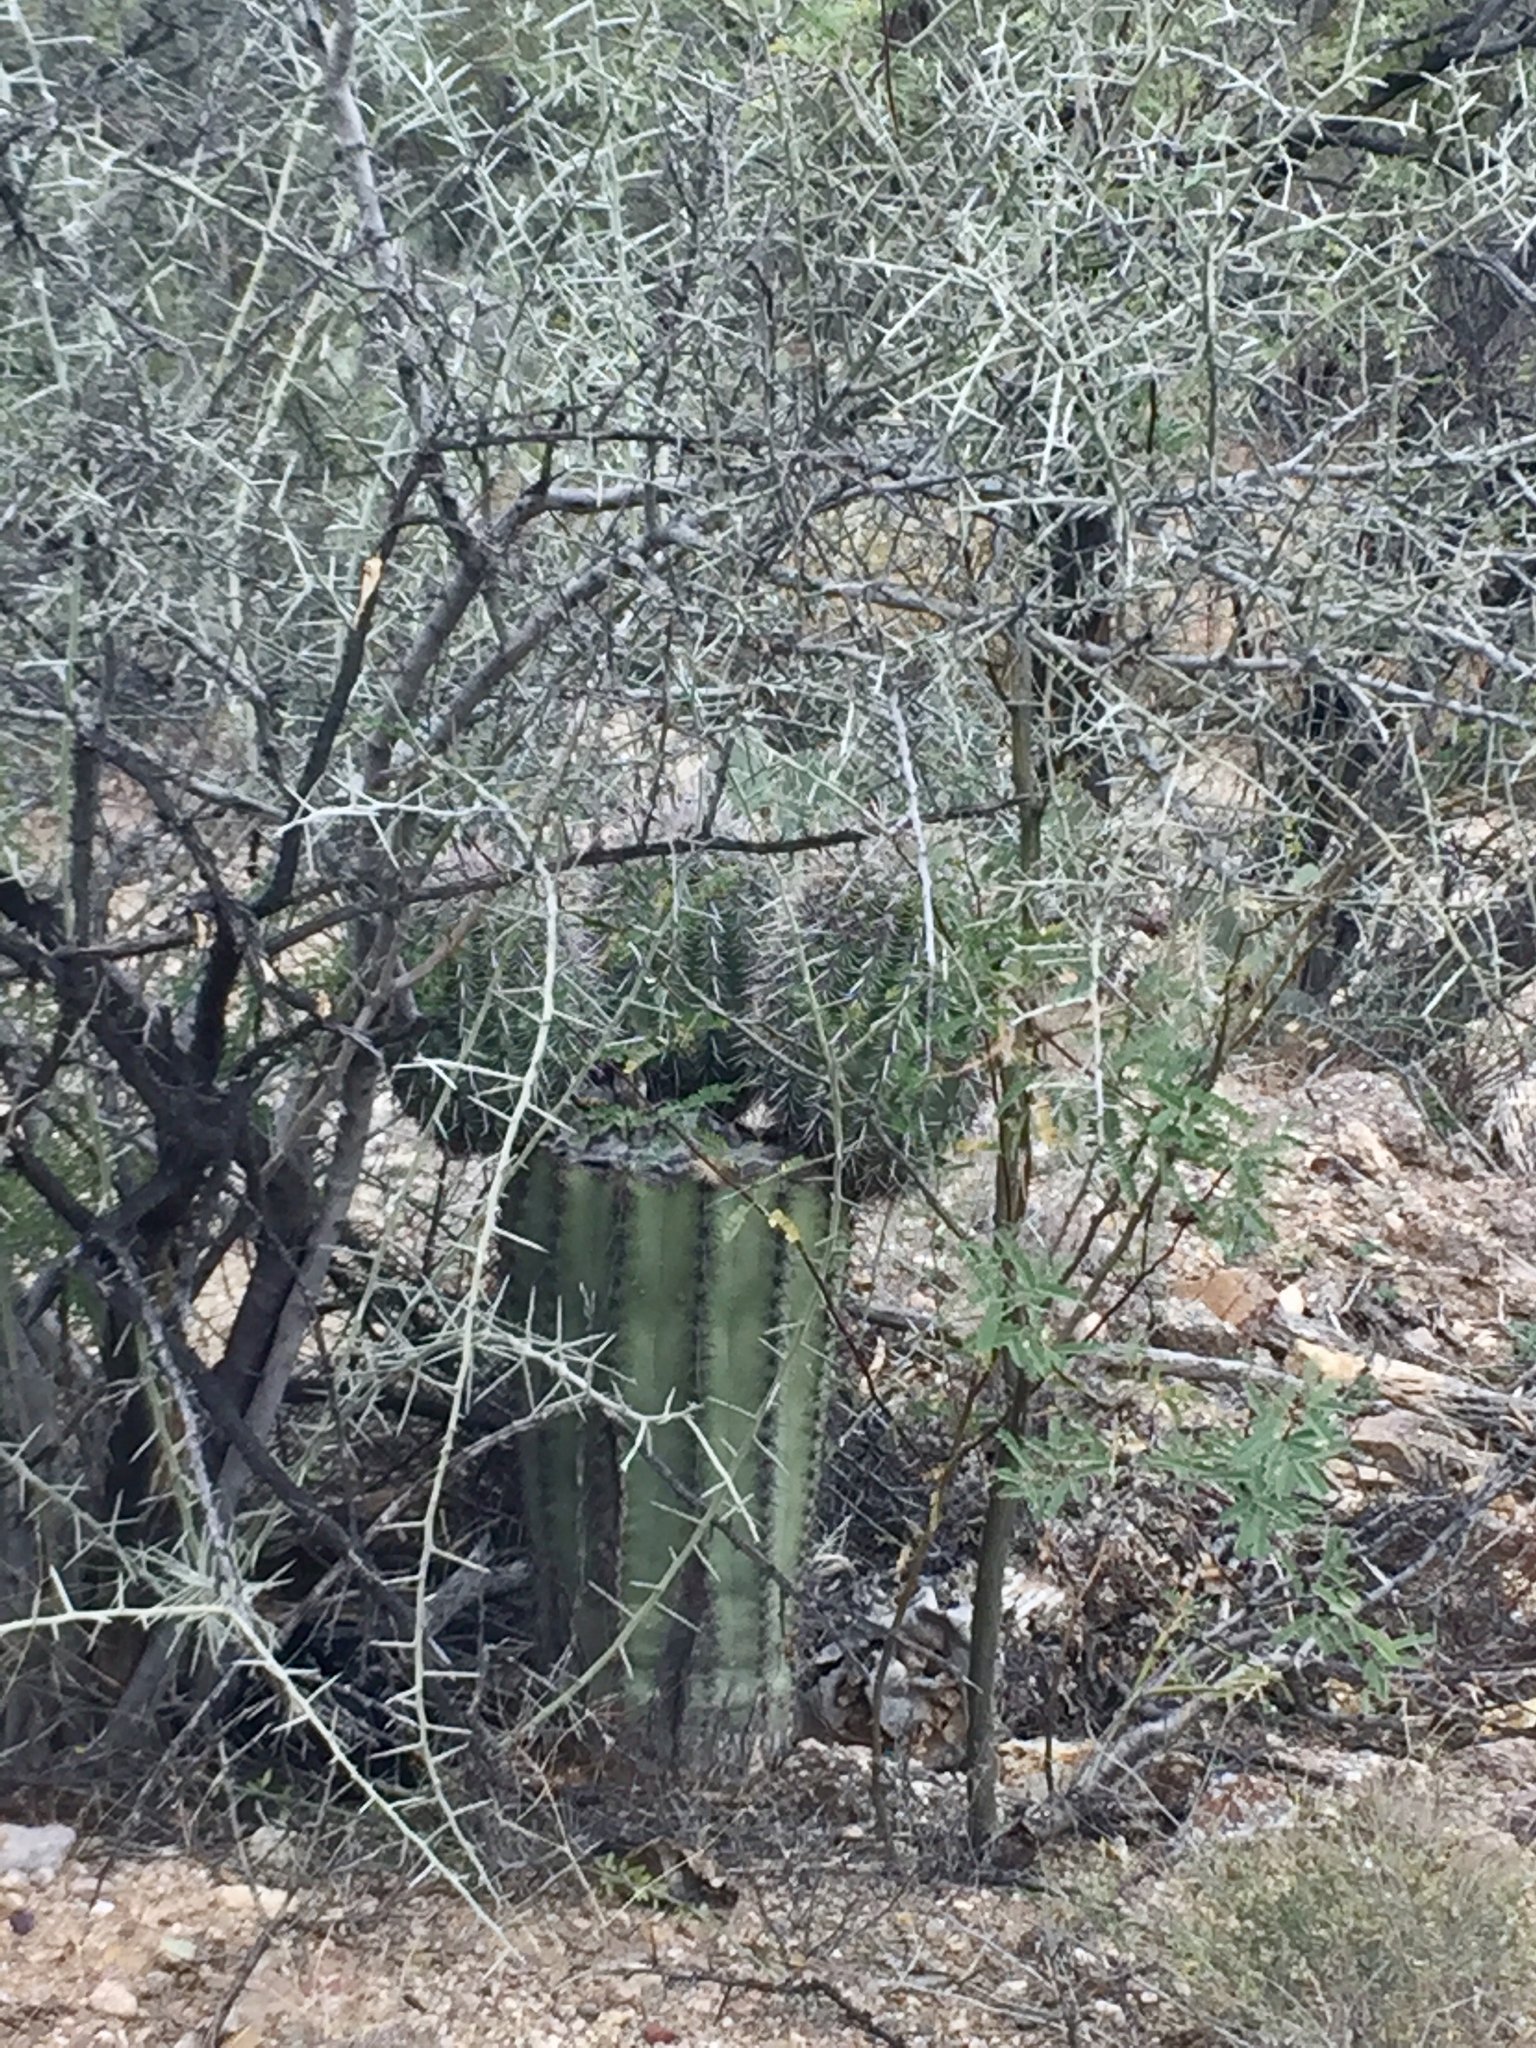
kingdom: Plantae
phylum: Tracheophyta
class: Magnoliopsida
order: Caryophyllales
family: Cactaceae
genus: Carnegiea
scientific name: Carnegiea gigantea
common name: Saguaro
